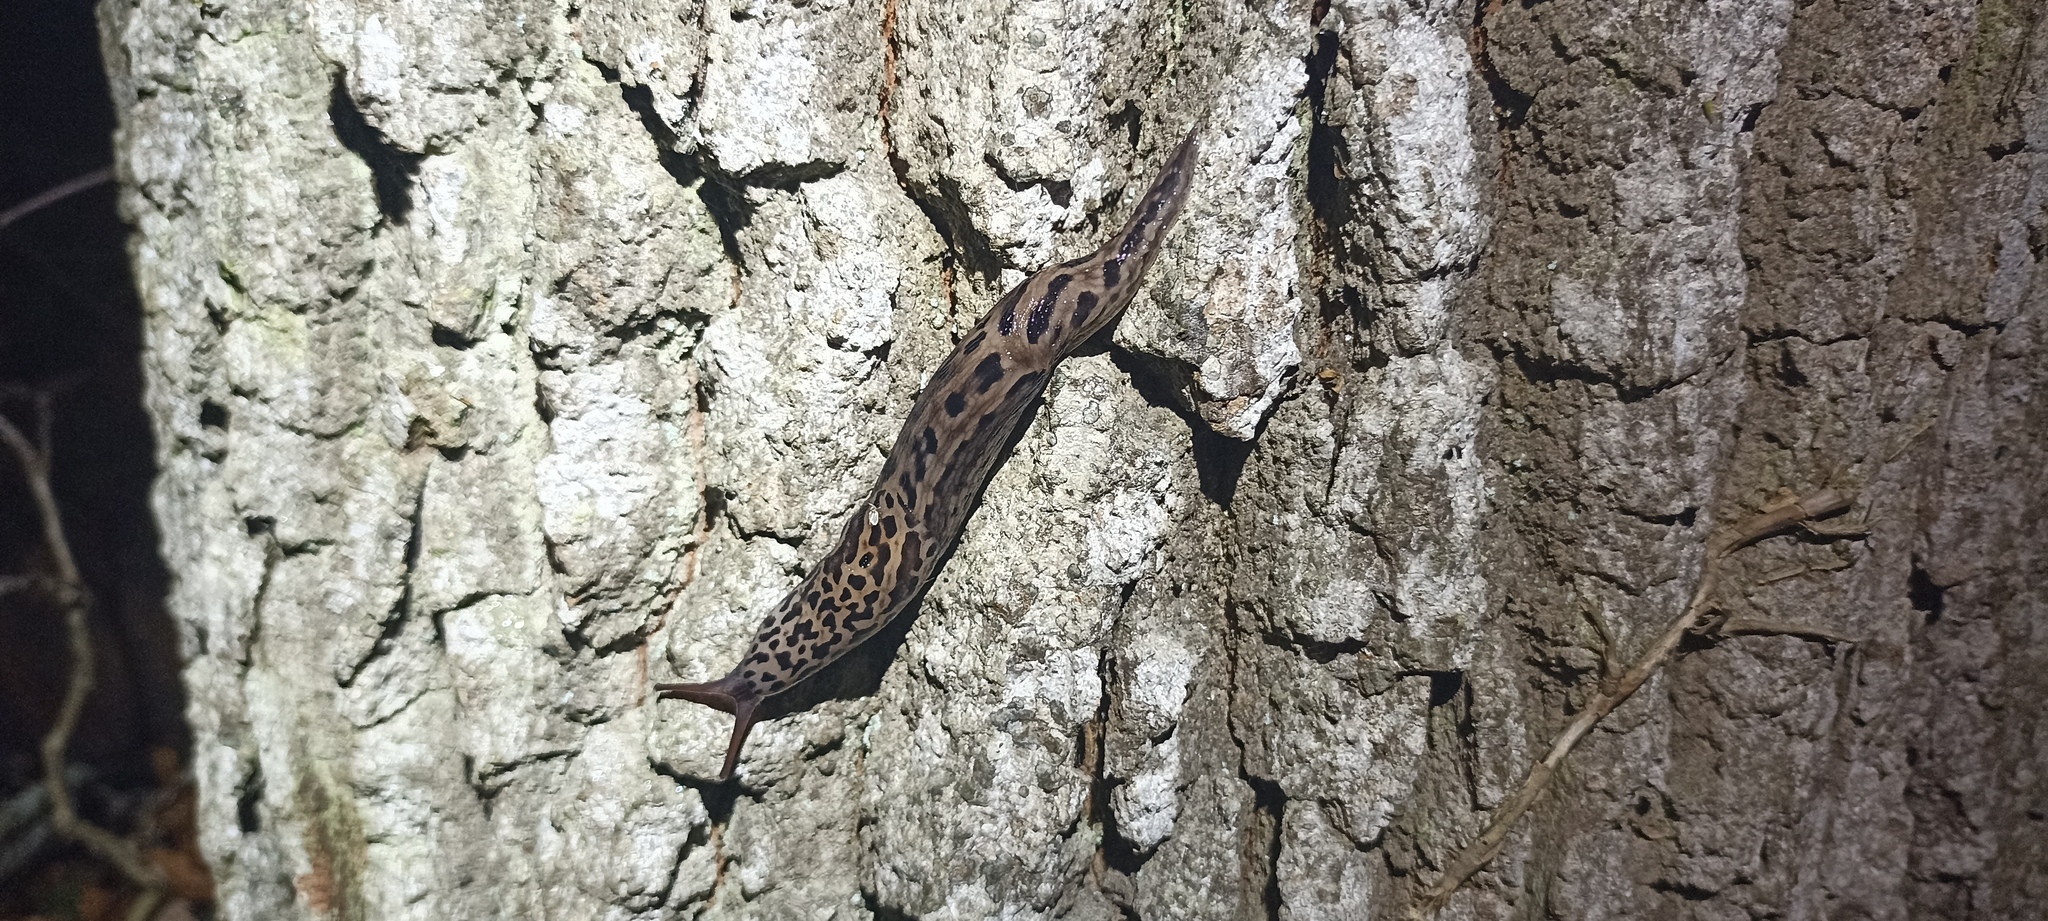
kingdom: Animalia
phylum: Mollusca
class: Gastropoda
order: Stylommatophora
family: Limacidae
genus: Limax
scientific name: Limax maximus
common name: Great grey slug
